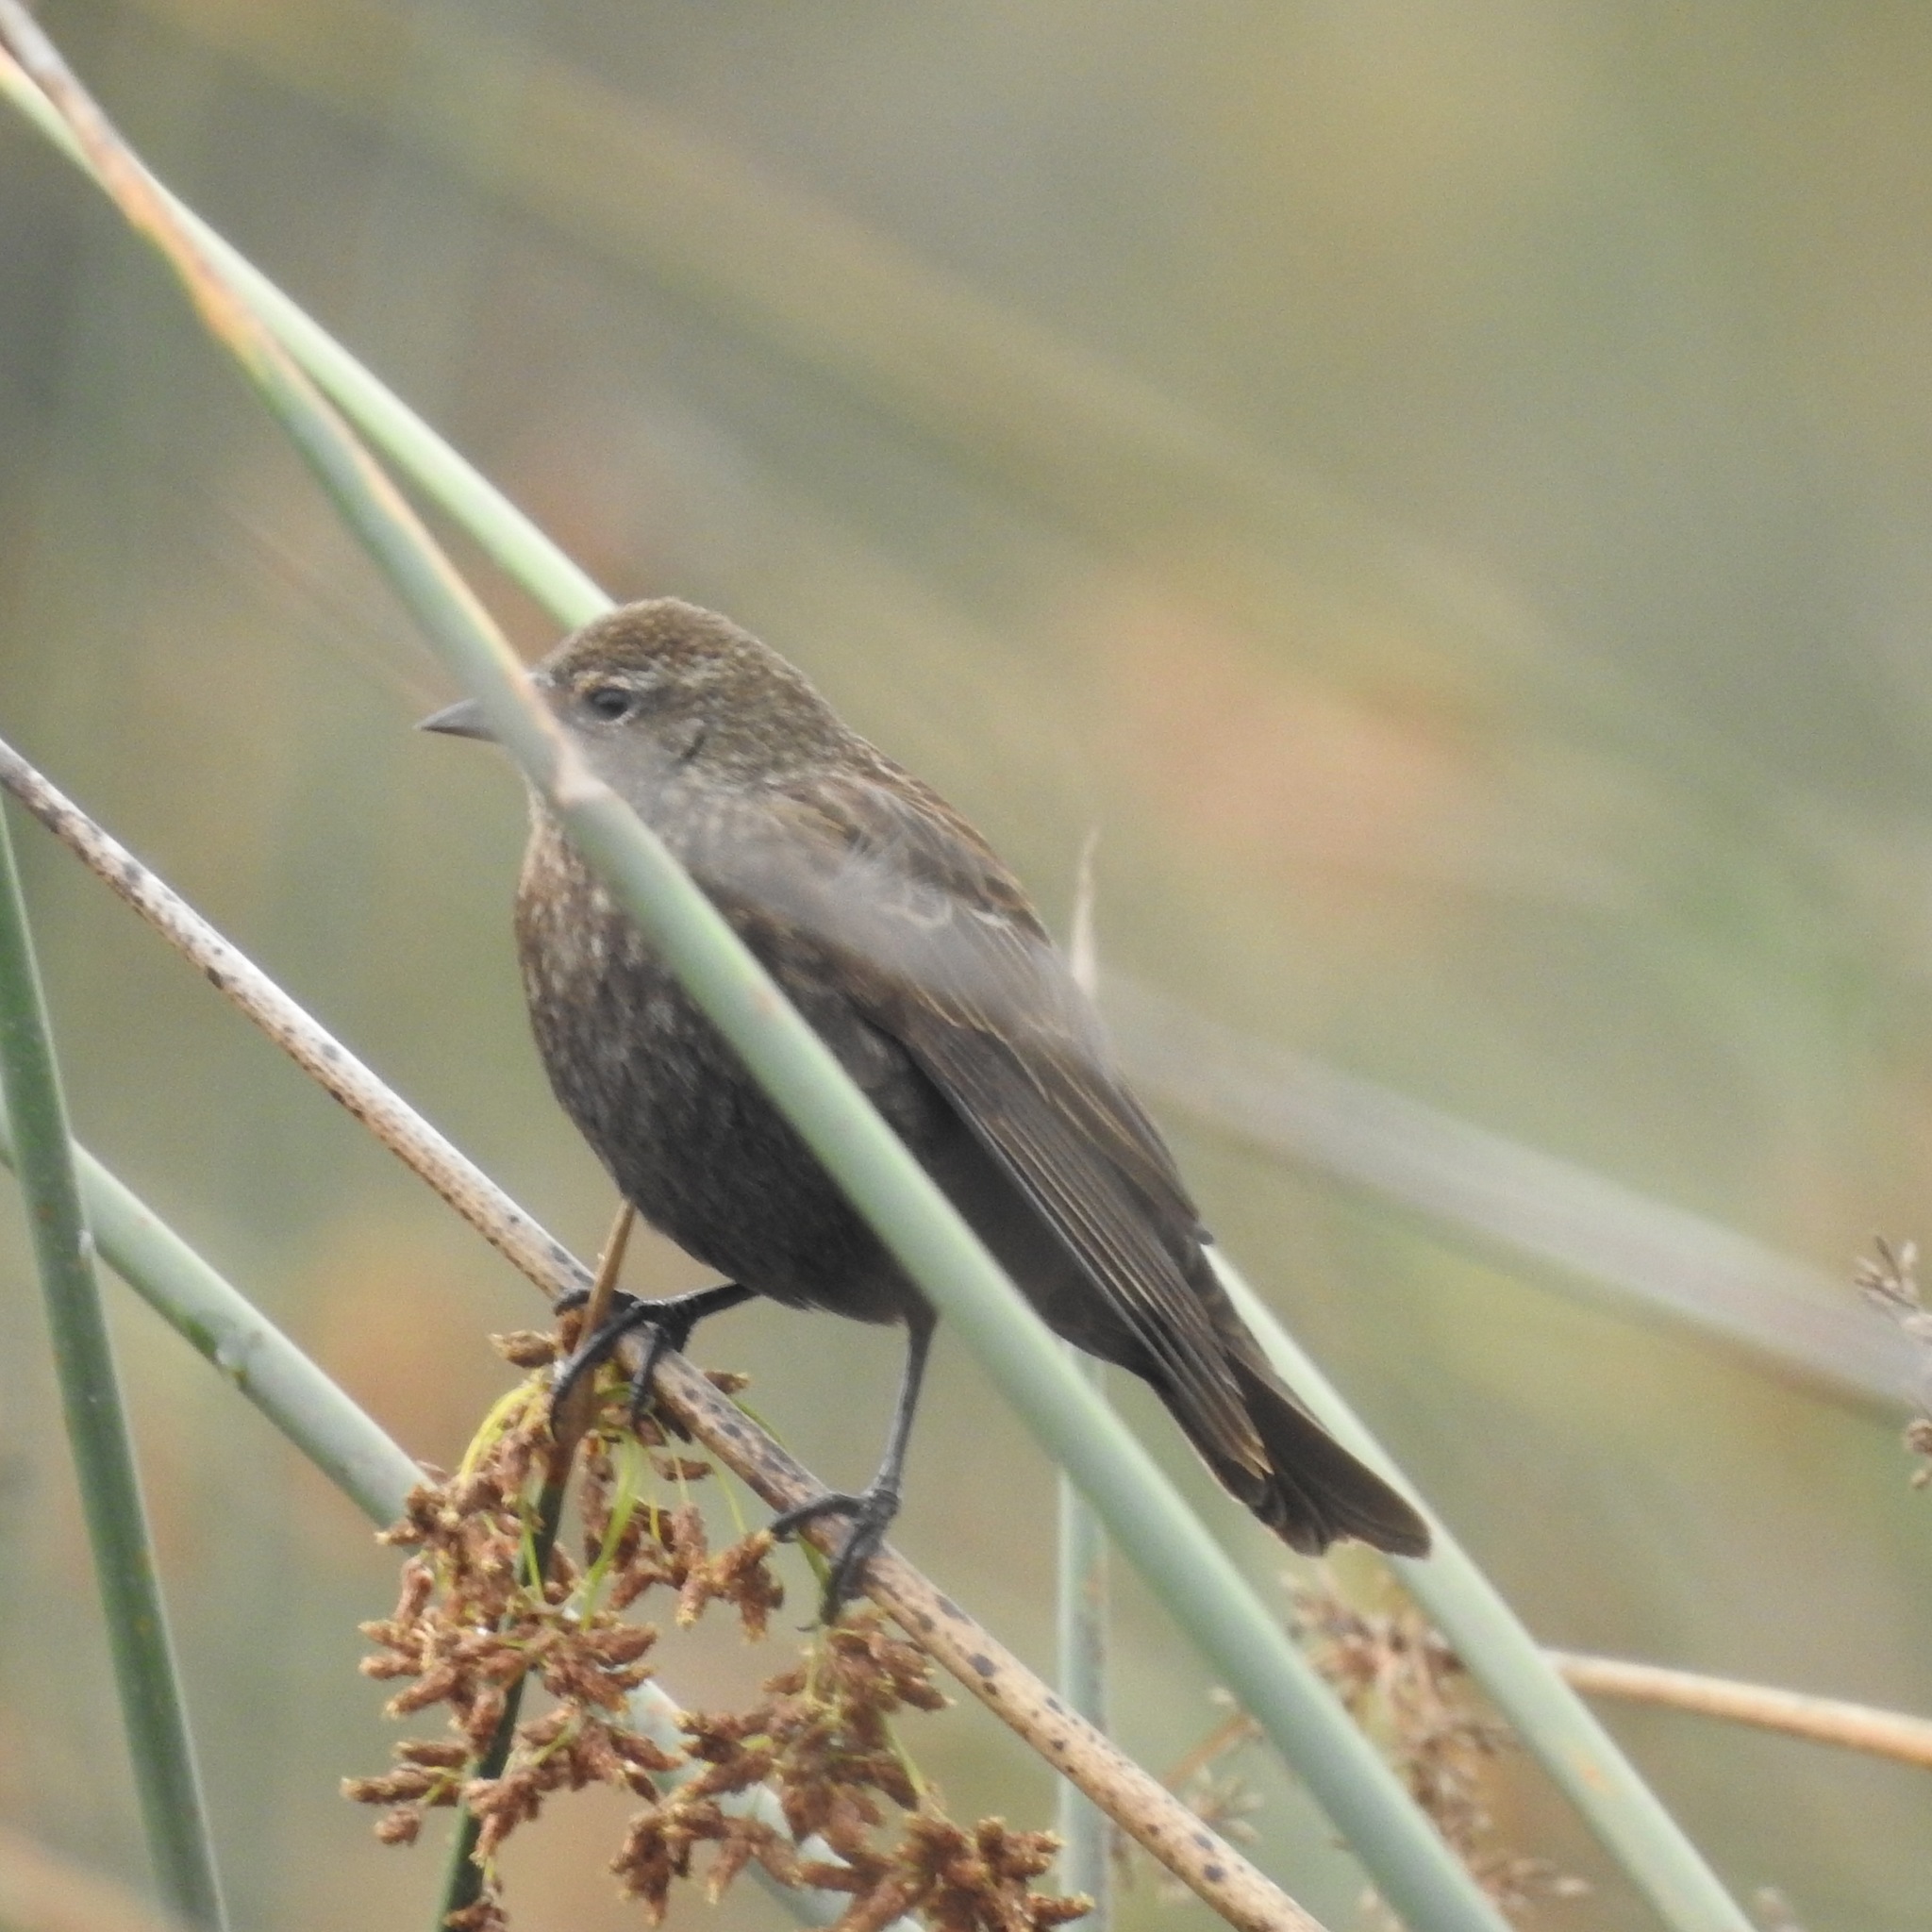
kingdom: Animalia
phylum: Chordata
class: Aves
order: Passeriformes
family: Icteridae
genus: Agelaius
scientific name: Agelaius phoeniceus
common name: Red-winged blackbird
